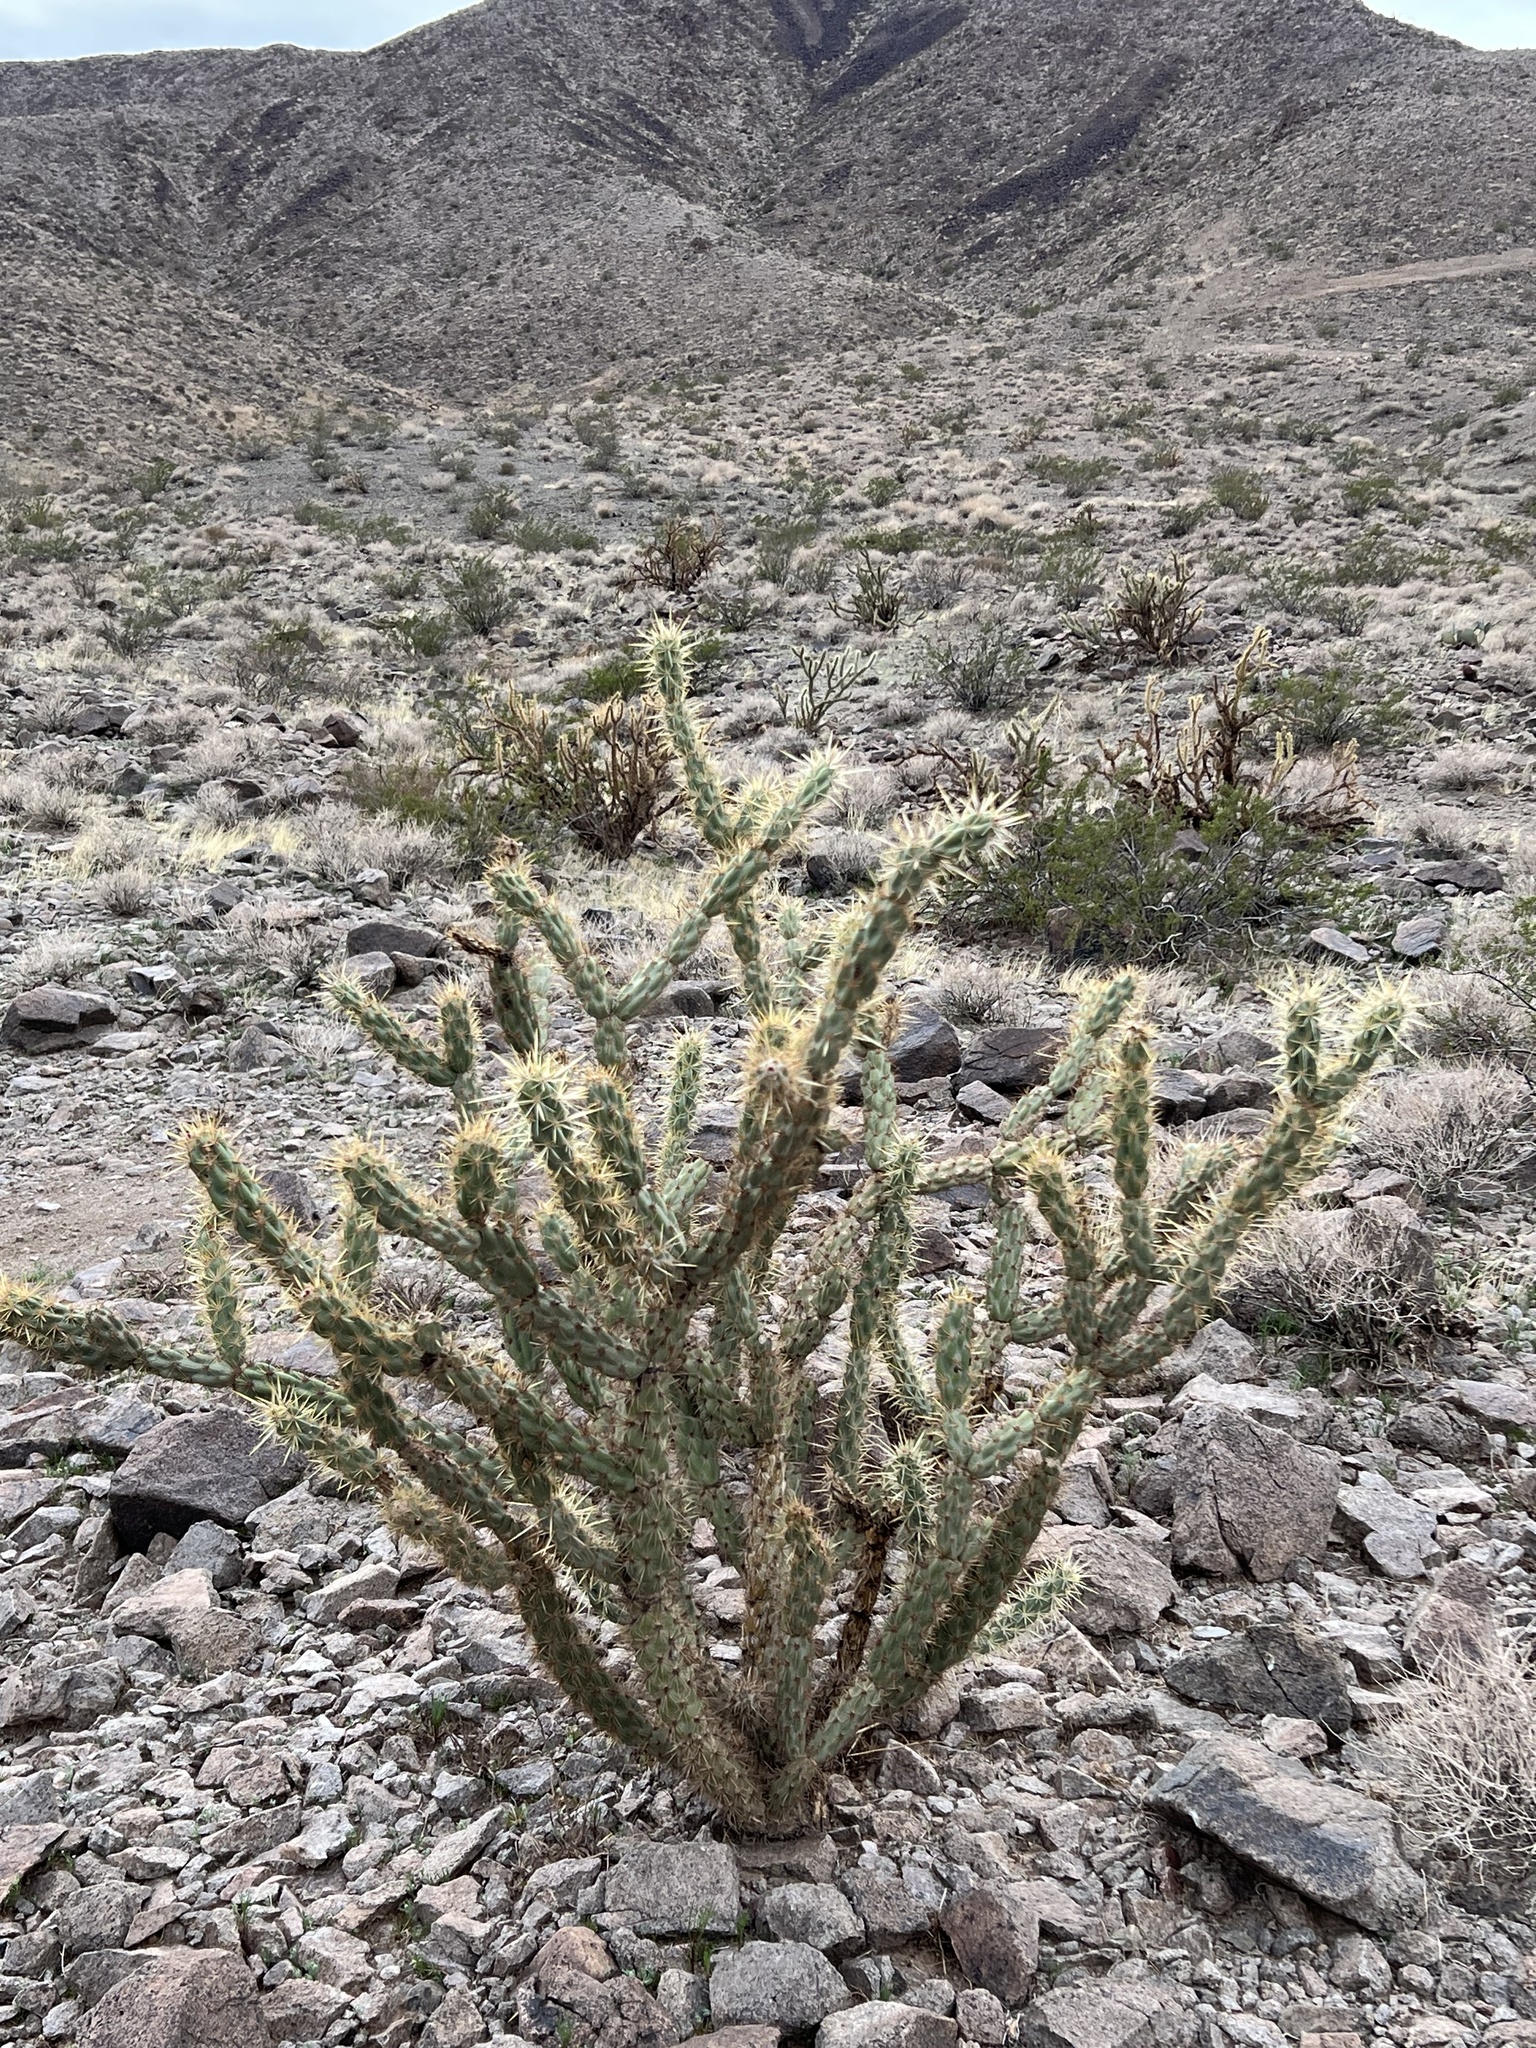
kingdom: Plantae
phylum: Tracheophyta
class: Magnoliopsida
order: Caryophyllales
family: Cactaceae
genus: Cylindropuntia
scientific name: Cylindropuntia acanthocarpa
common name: Buckhorn cholla
